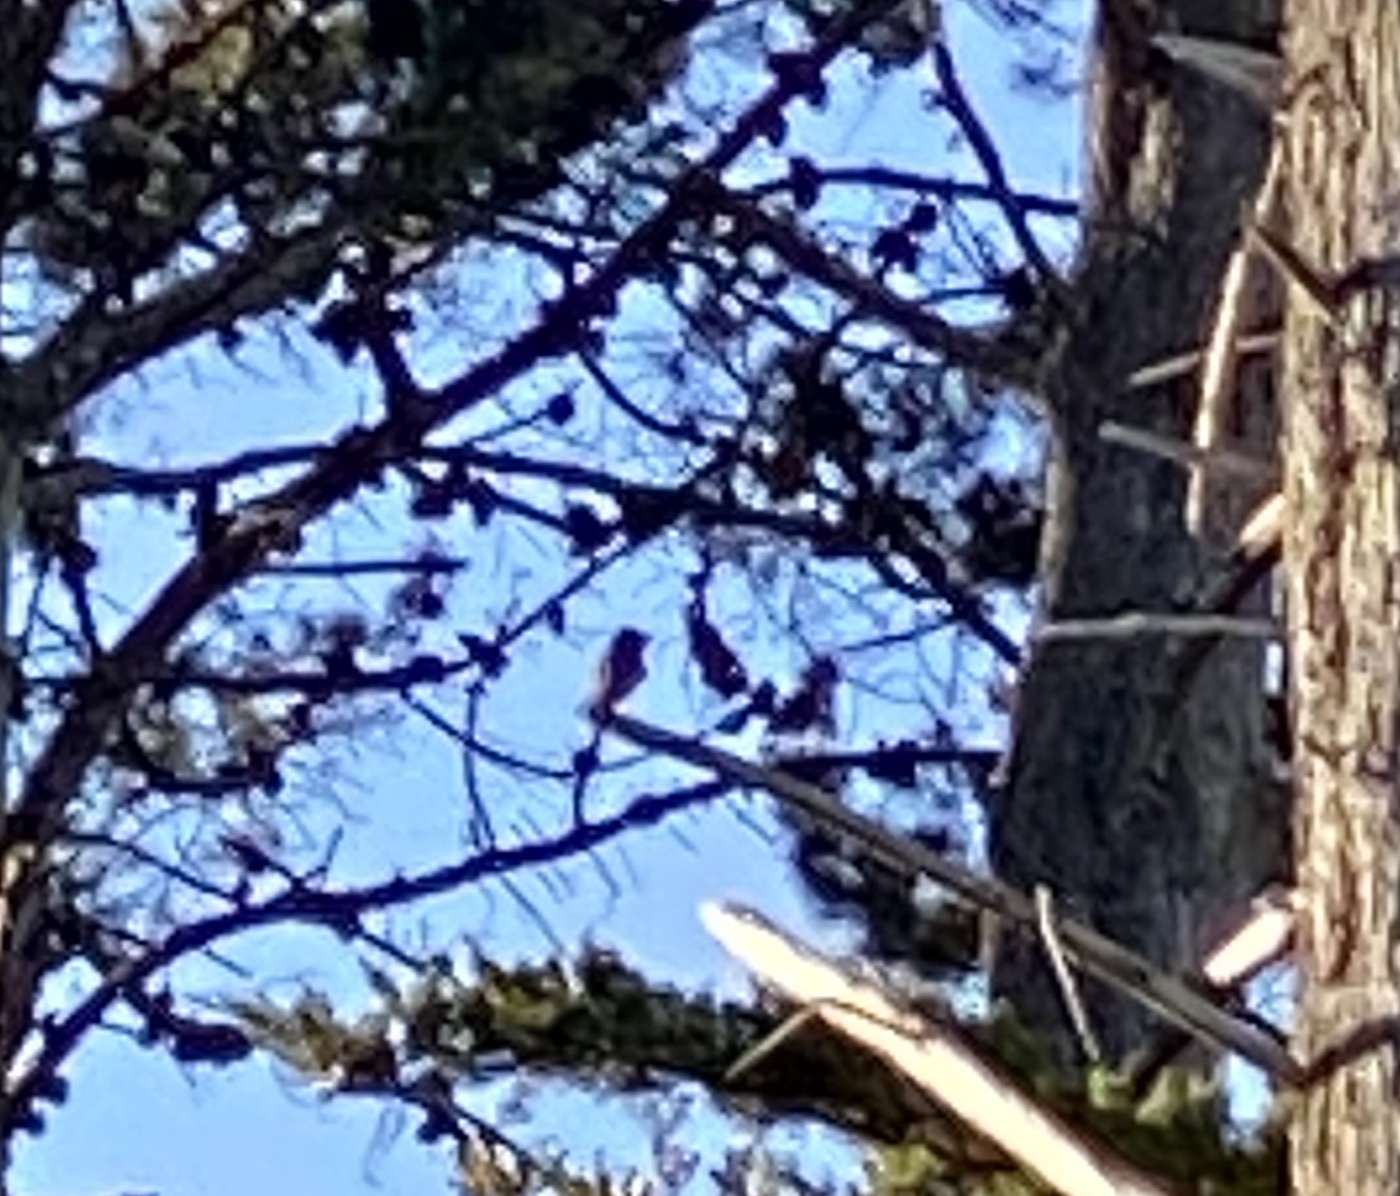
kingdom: Animalia
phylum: Chordata
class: Aves
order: Passeriformes
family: Tyrannidae
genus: Sayornis
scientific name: Sayornis nigricans
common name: Black phoebe
